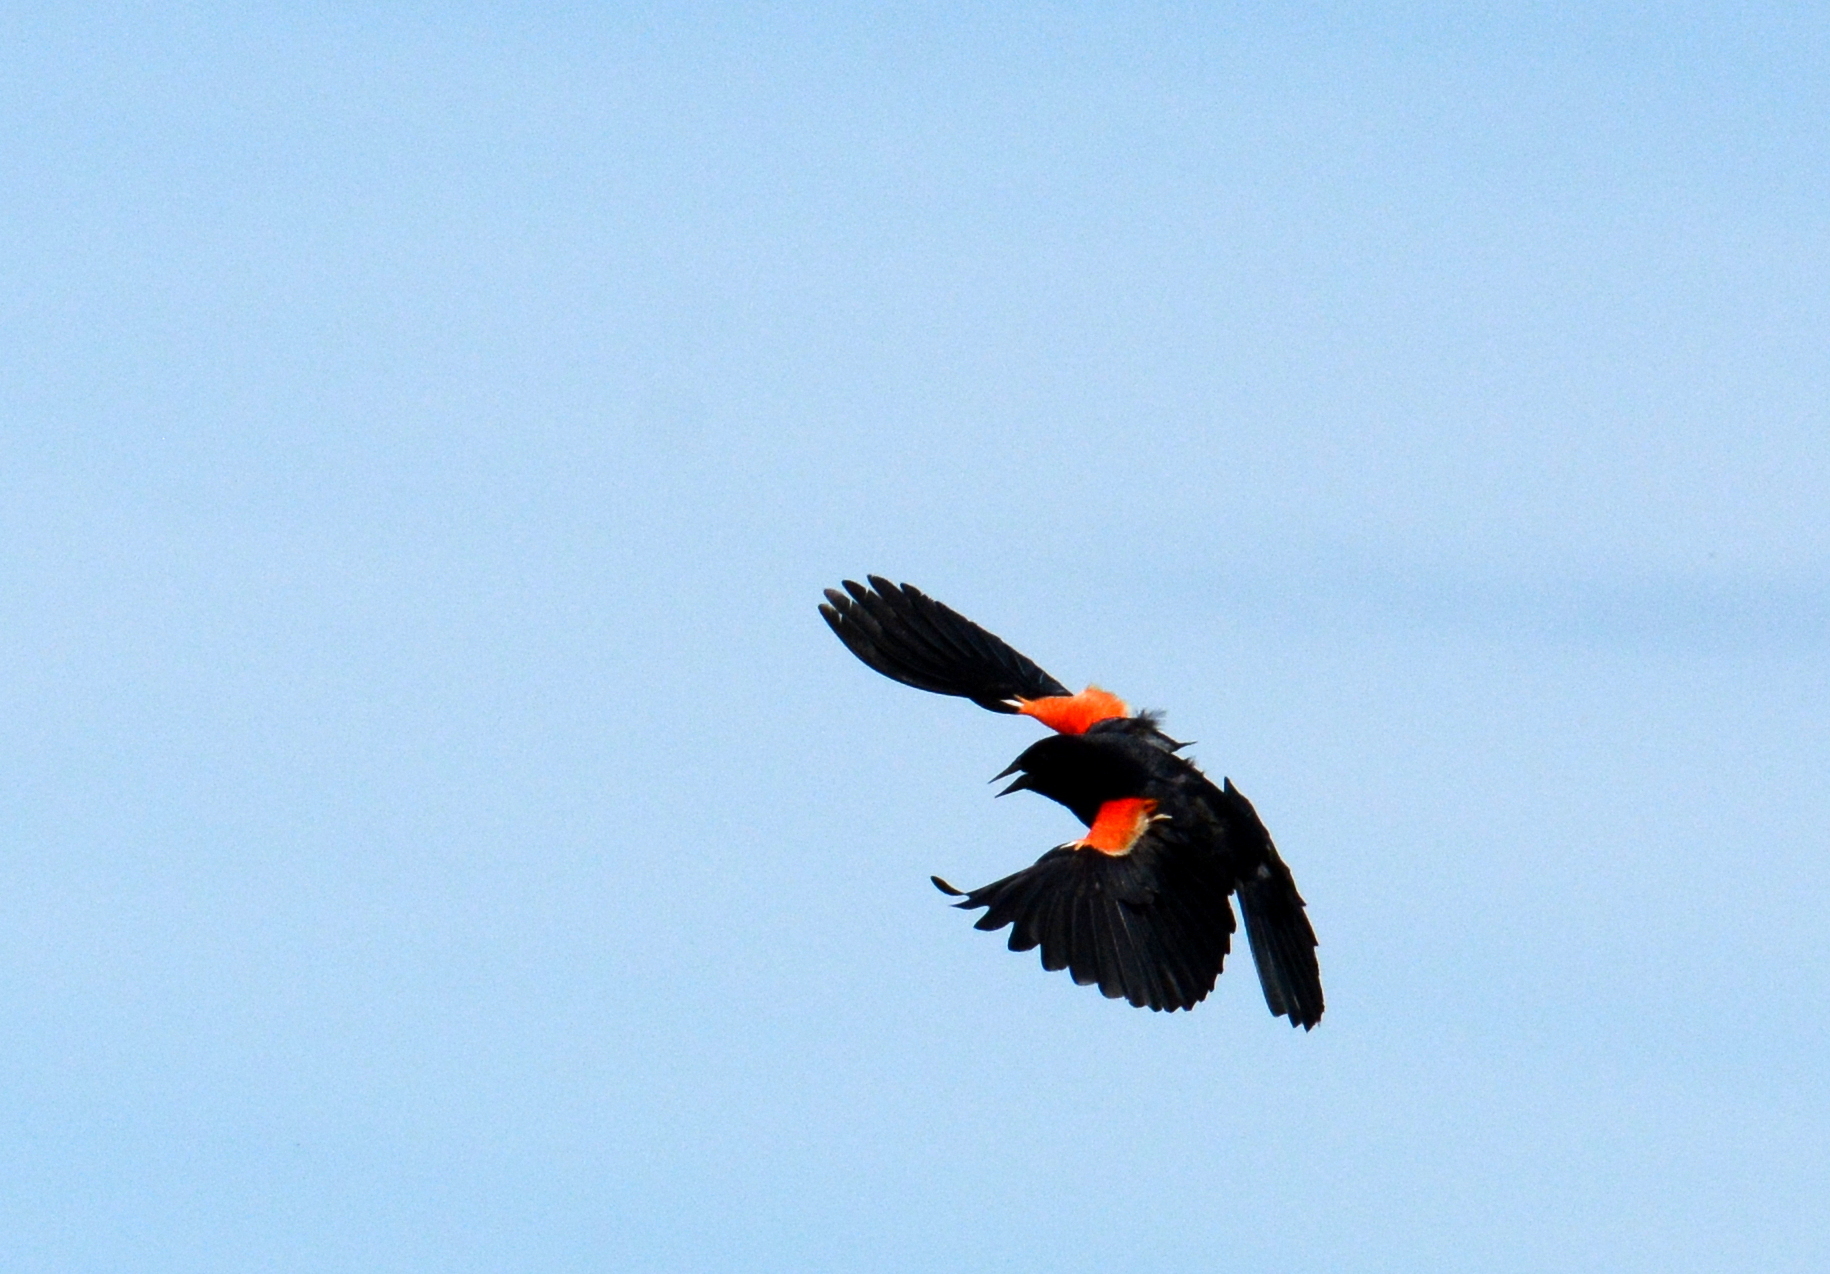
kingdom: Animalia
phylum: Chordata
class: Aves
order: Passeriformes
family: Icteridae
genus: Agelaius
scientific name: Agelaius phoeniceus
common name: Red-winged blackbird
